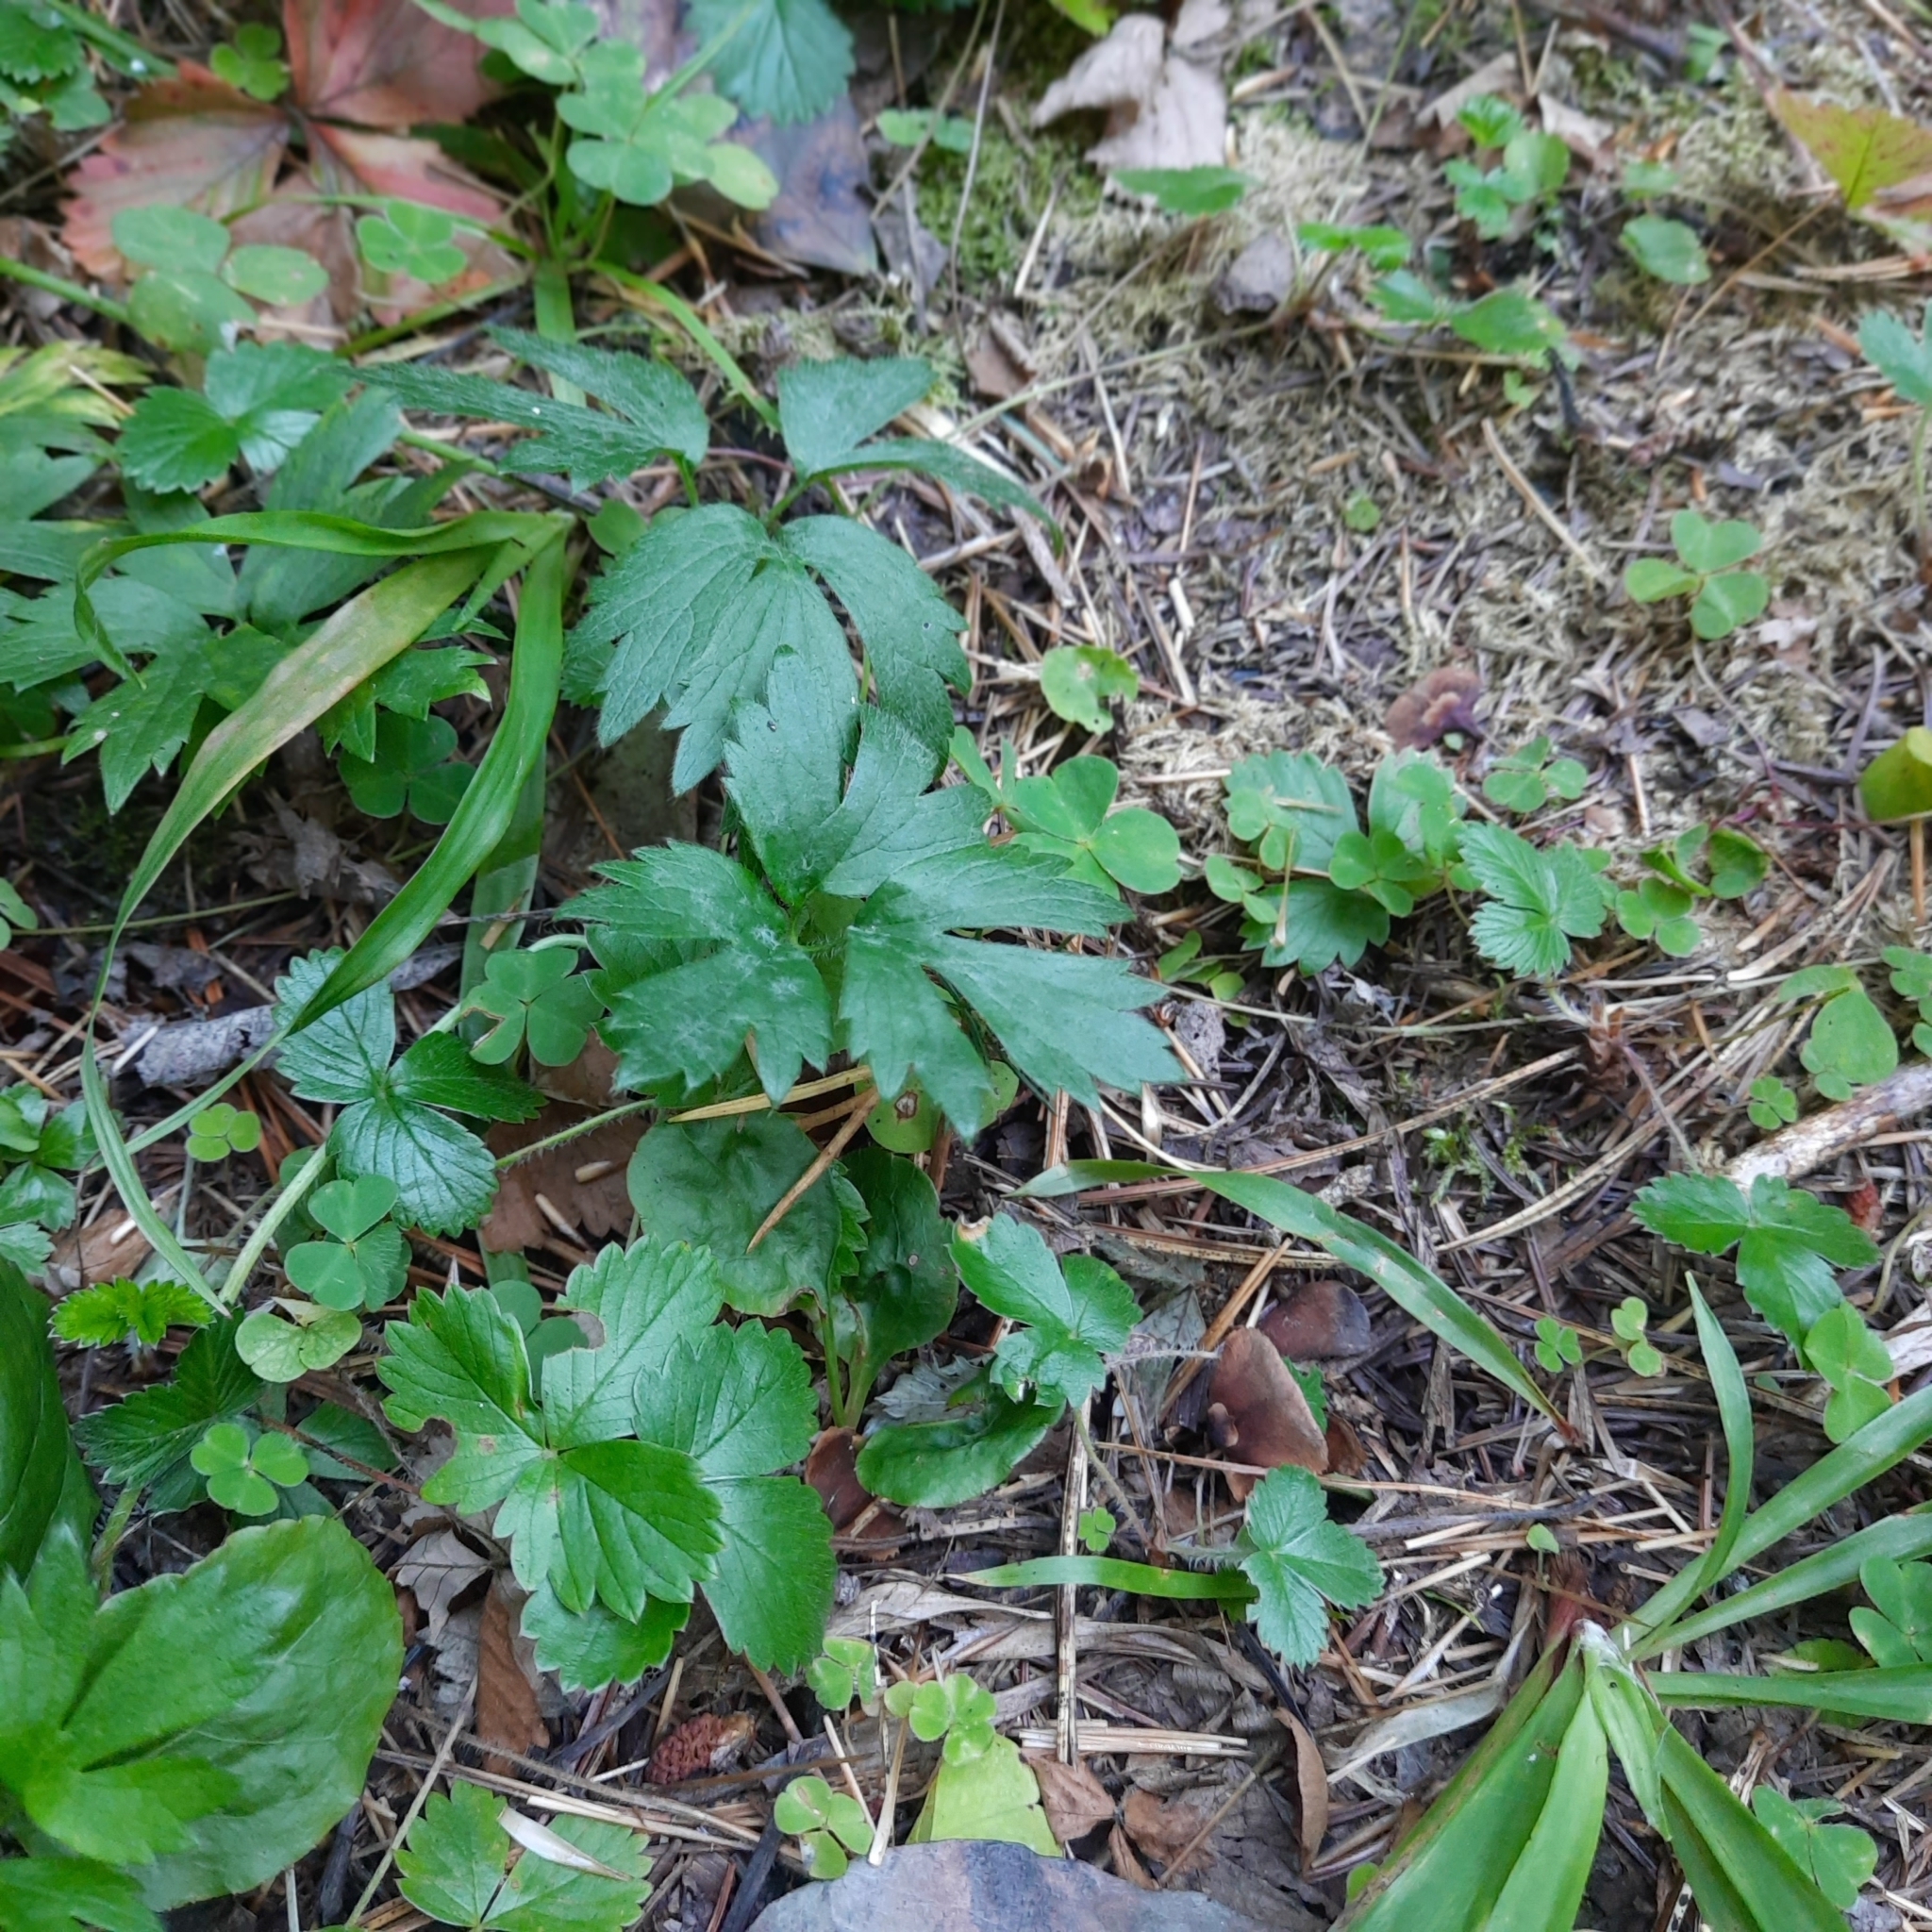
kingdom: Plantae
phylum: Tracheophyta
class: Magnoliopsida
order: Ranunculales
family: Ranunculaceae
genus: Ranunculus
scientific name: Ranunculus repens
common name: Creeping buttercup
